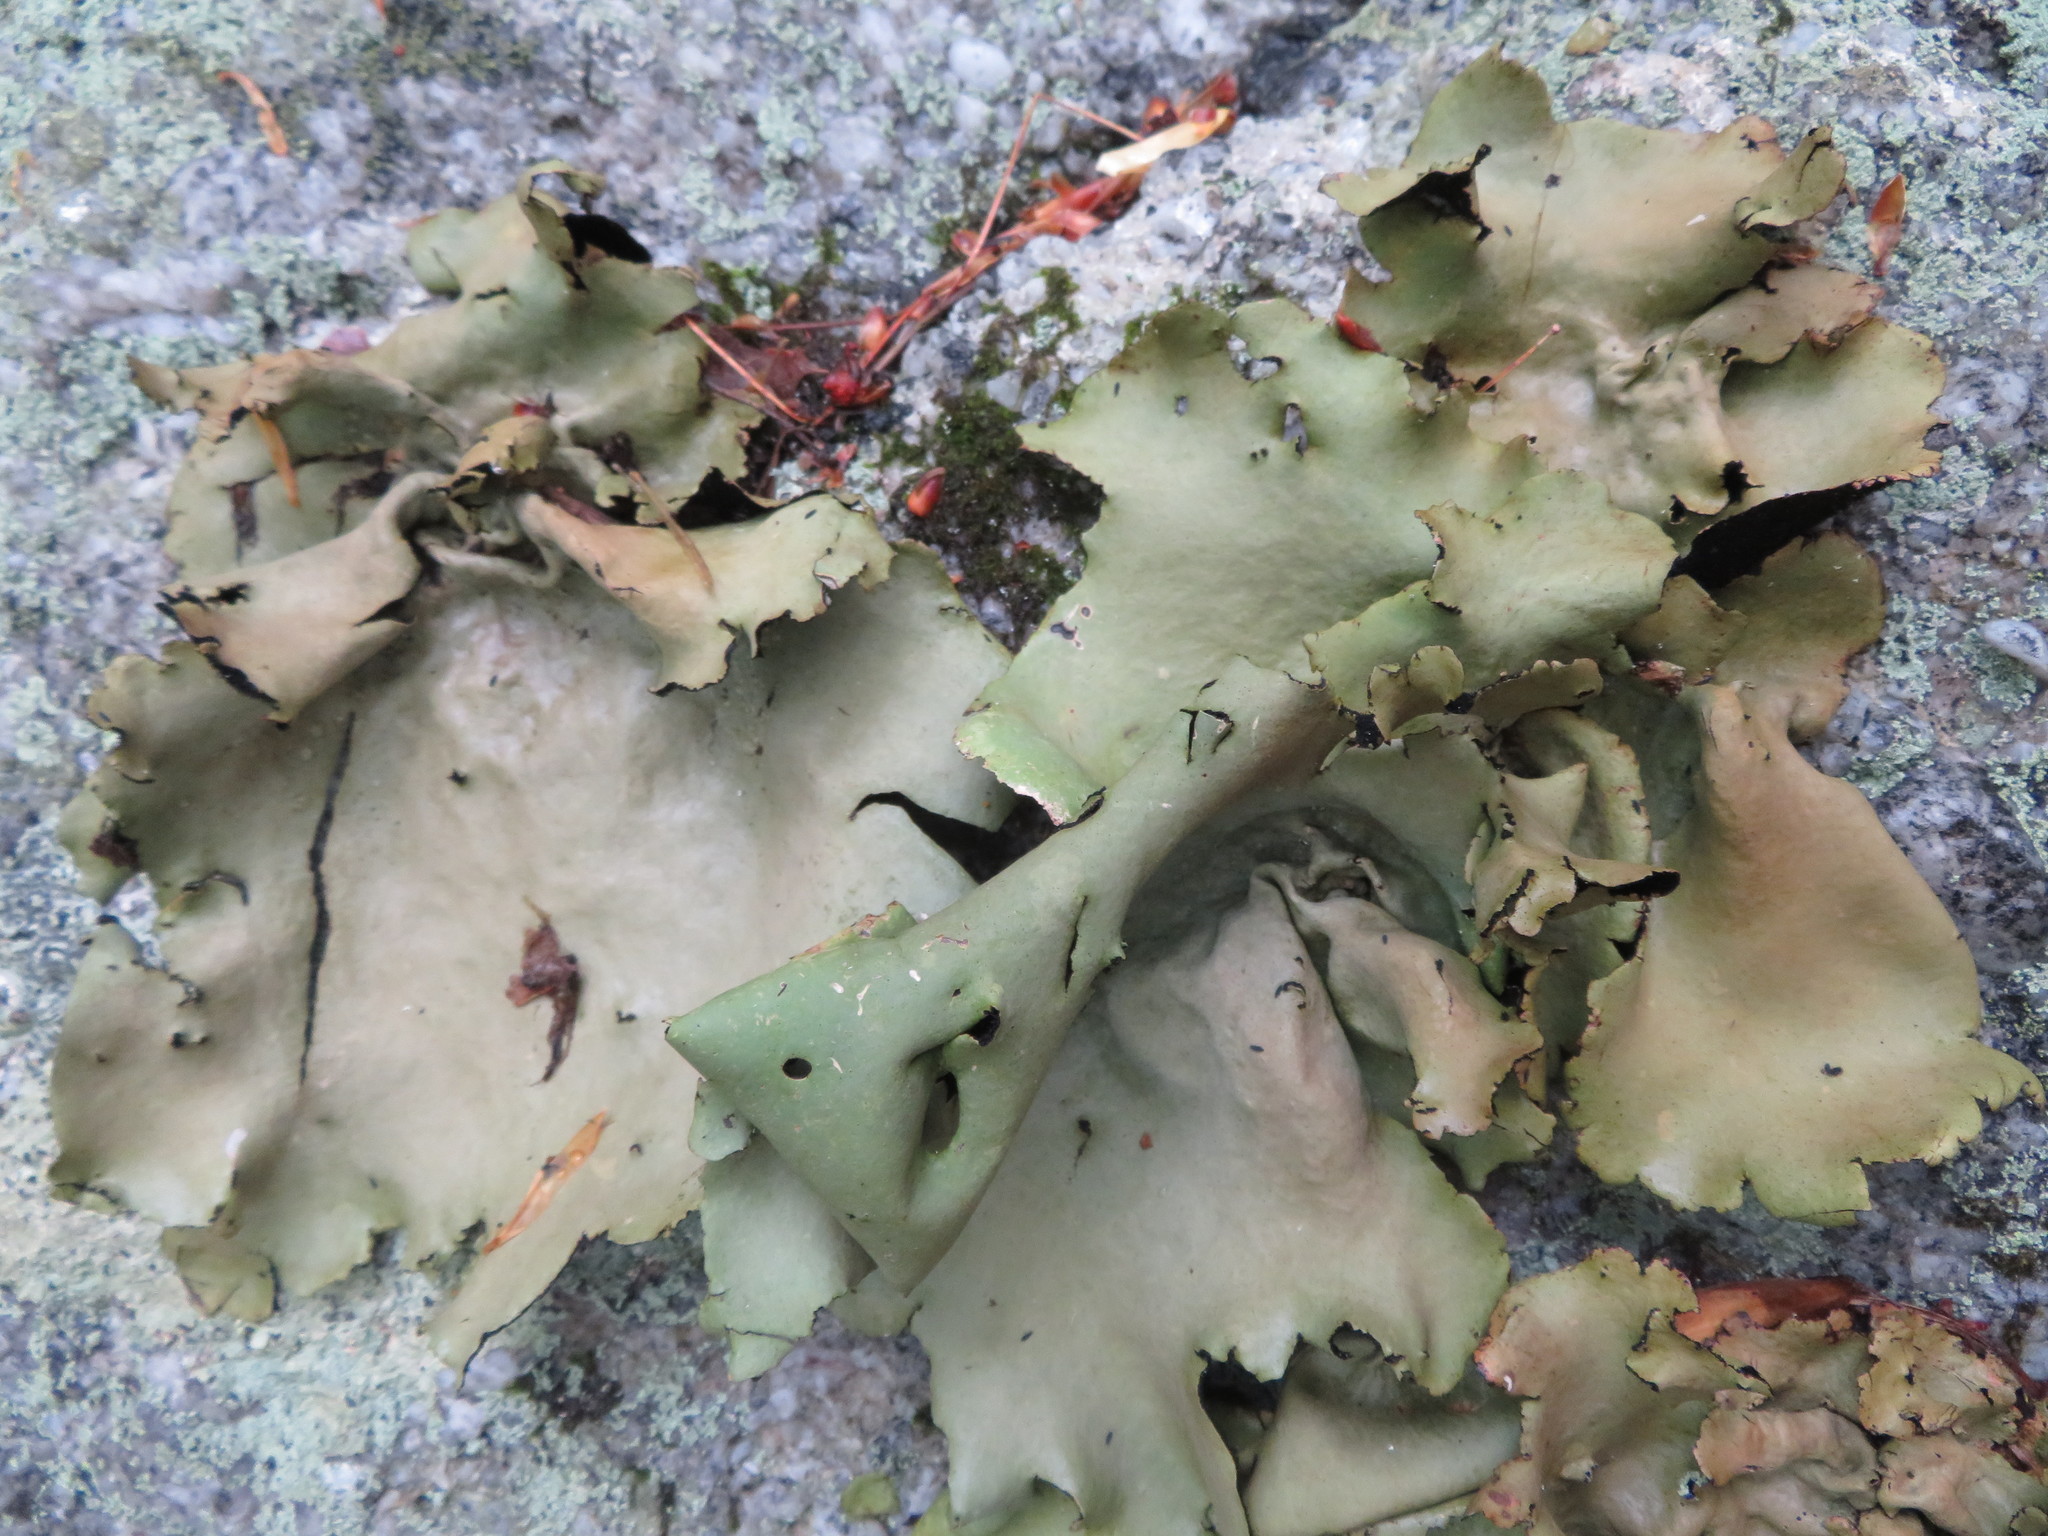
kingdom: Fungi
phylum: Ascomycota
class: Lecanoromycetes
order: Umbilicariales
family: Umbilicariaceae
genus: Umbilicaria
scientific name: Umbilicaria mammulata
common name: Smooth rock tripe
